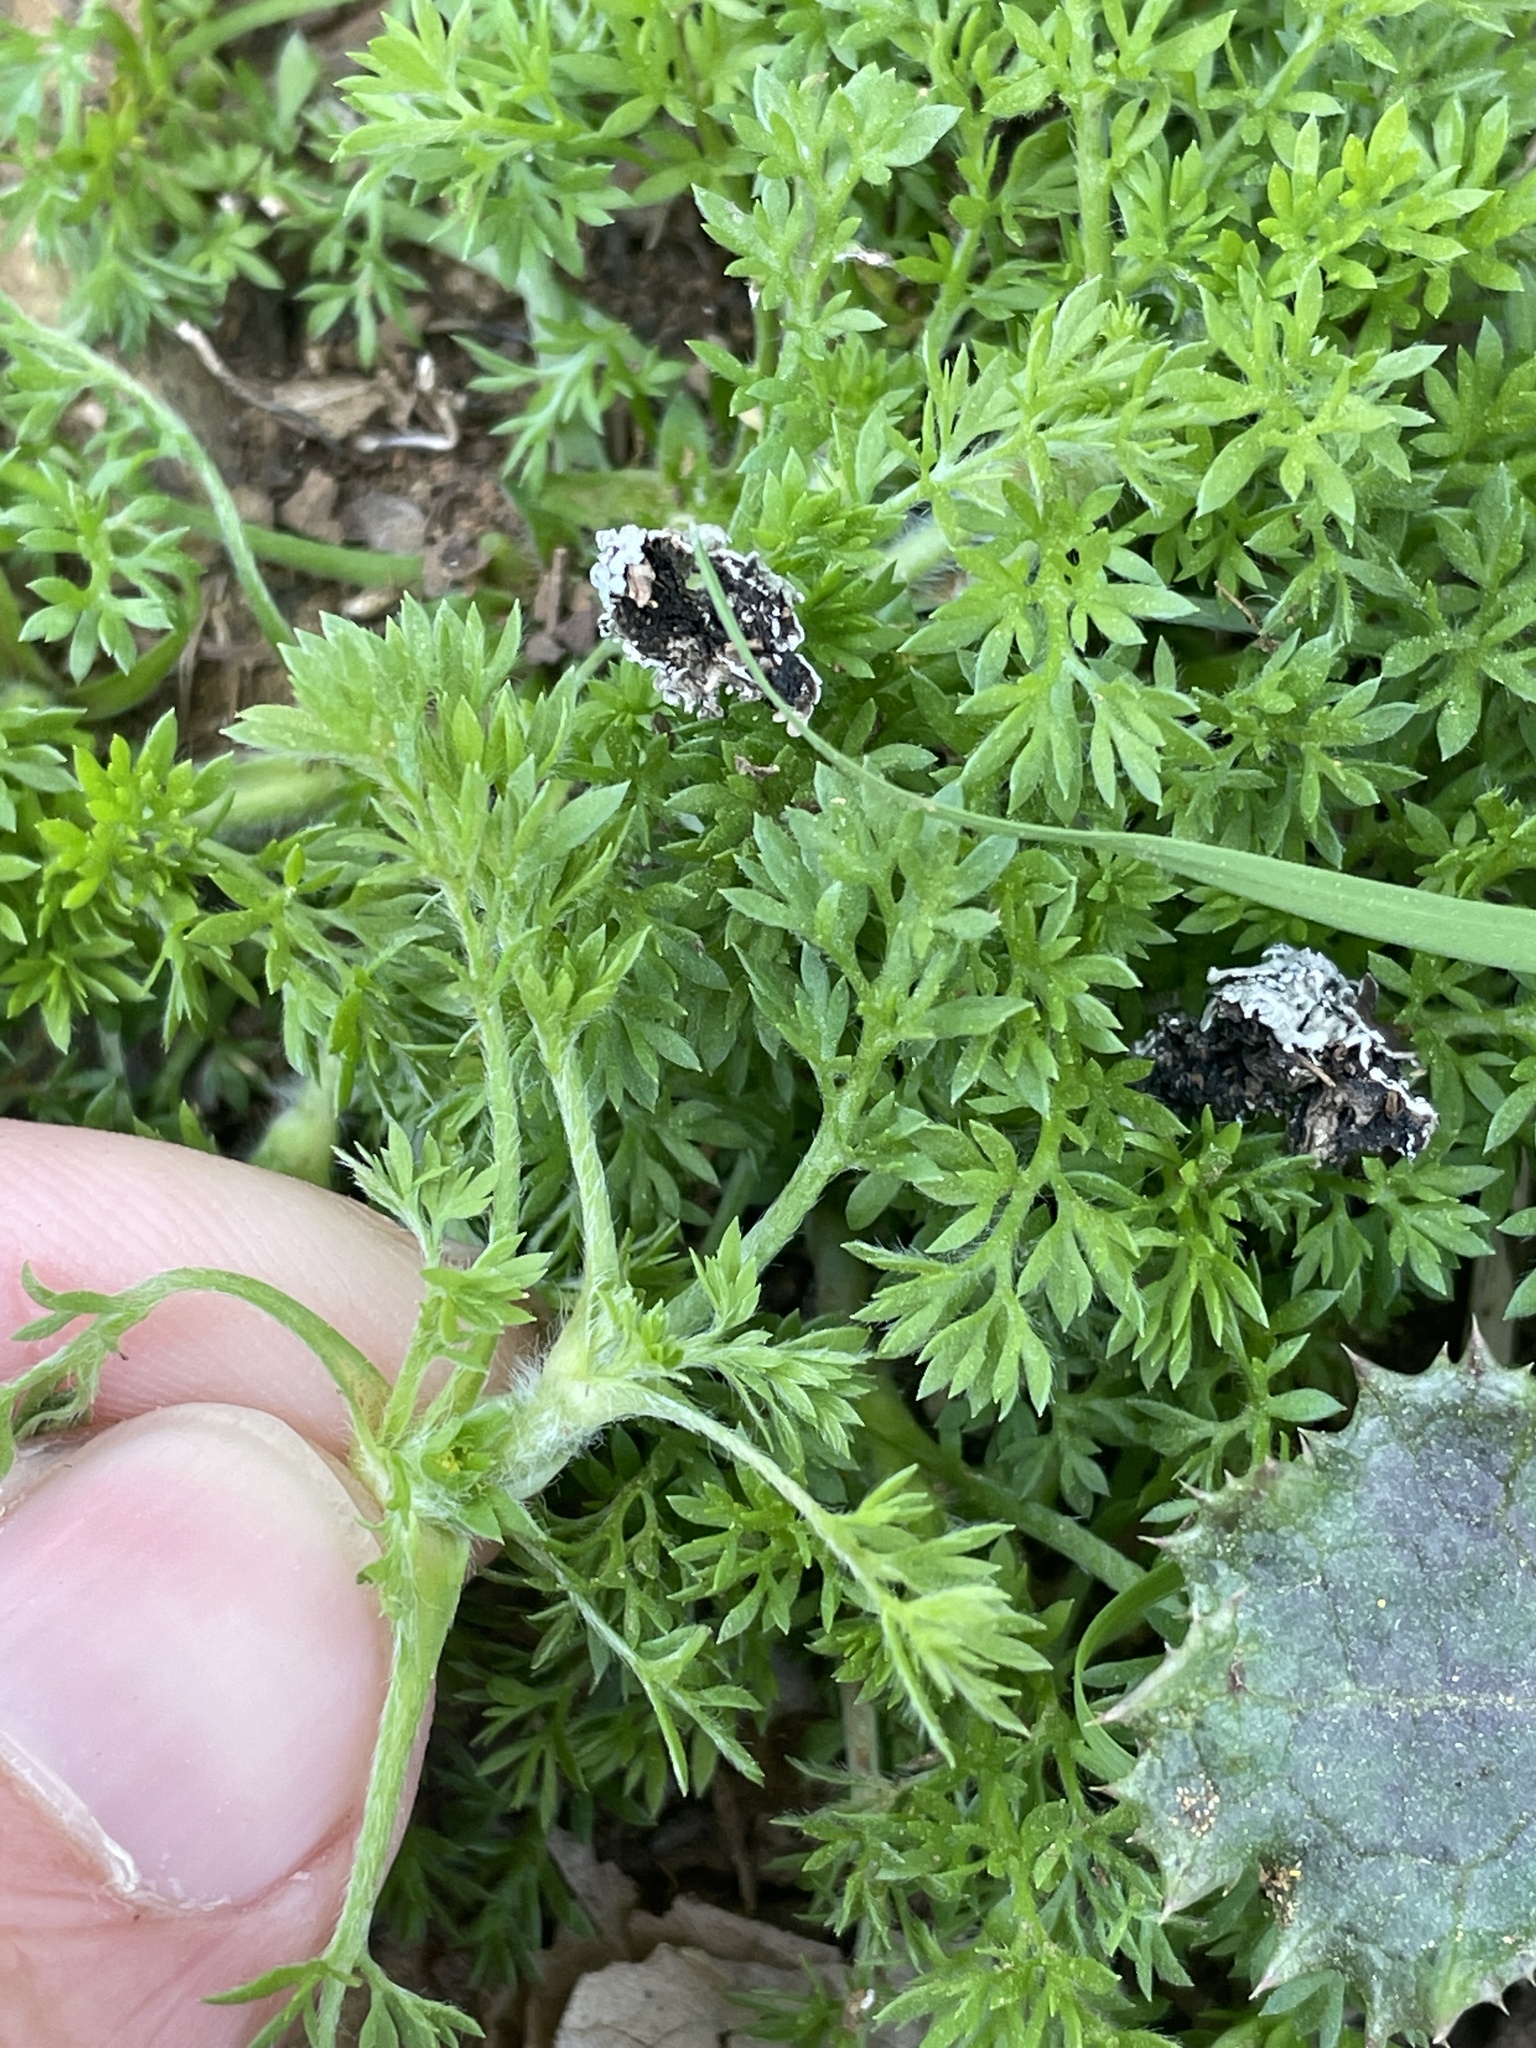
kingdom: Plantae
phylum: Tracheophyta
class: Magnoliopsida
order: Asterales
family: Asteraceae
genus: Soliva
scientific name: Soliva sessilis
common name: Field burrweed
